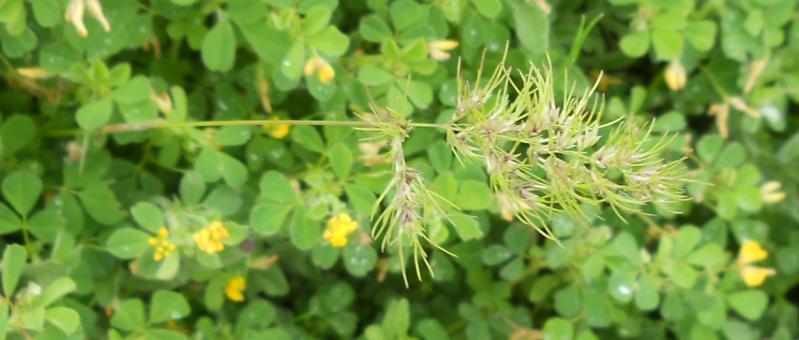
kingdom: Plantae
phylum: Tracheophyta
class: Liliopsida
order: Poales
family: Poaceae
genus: Poa
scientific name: Poa bulbosa
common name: Bulbous bluegrass
